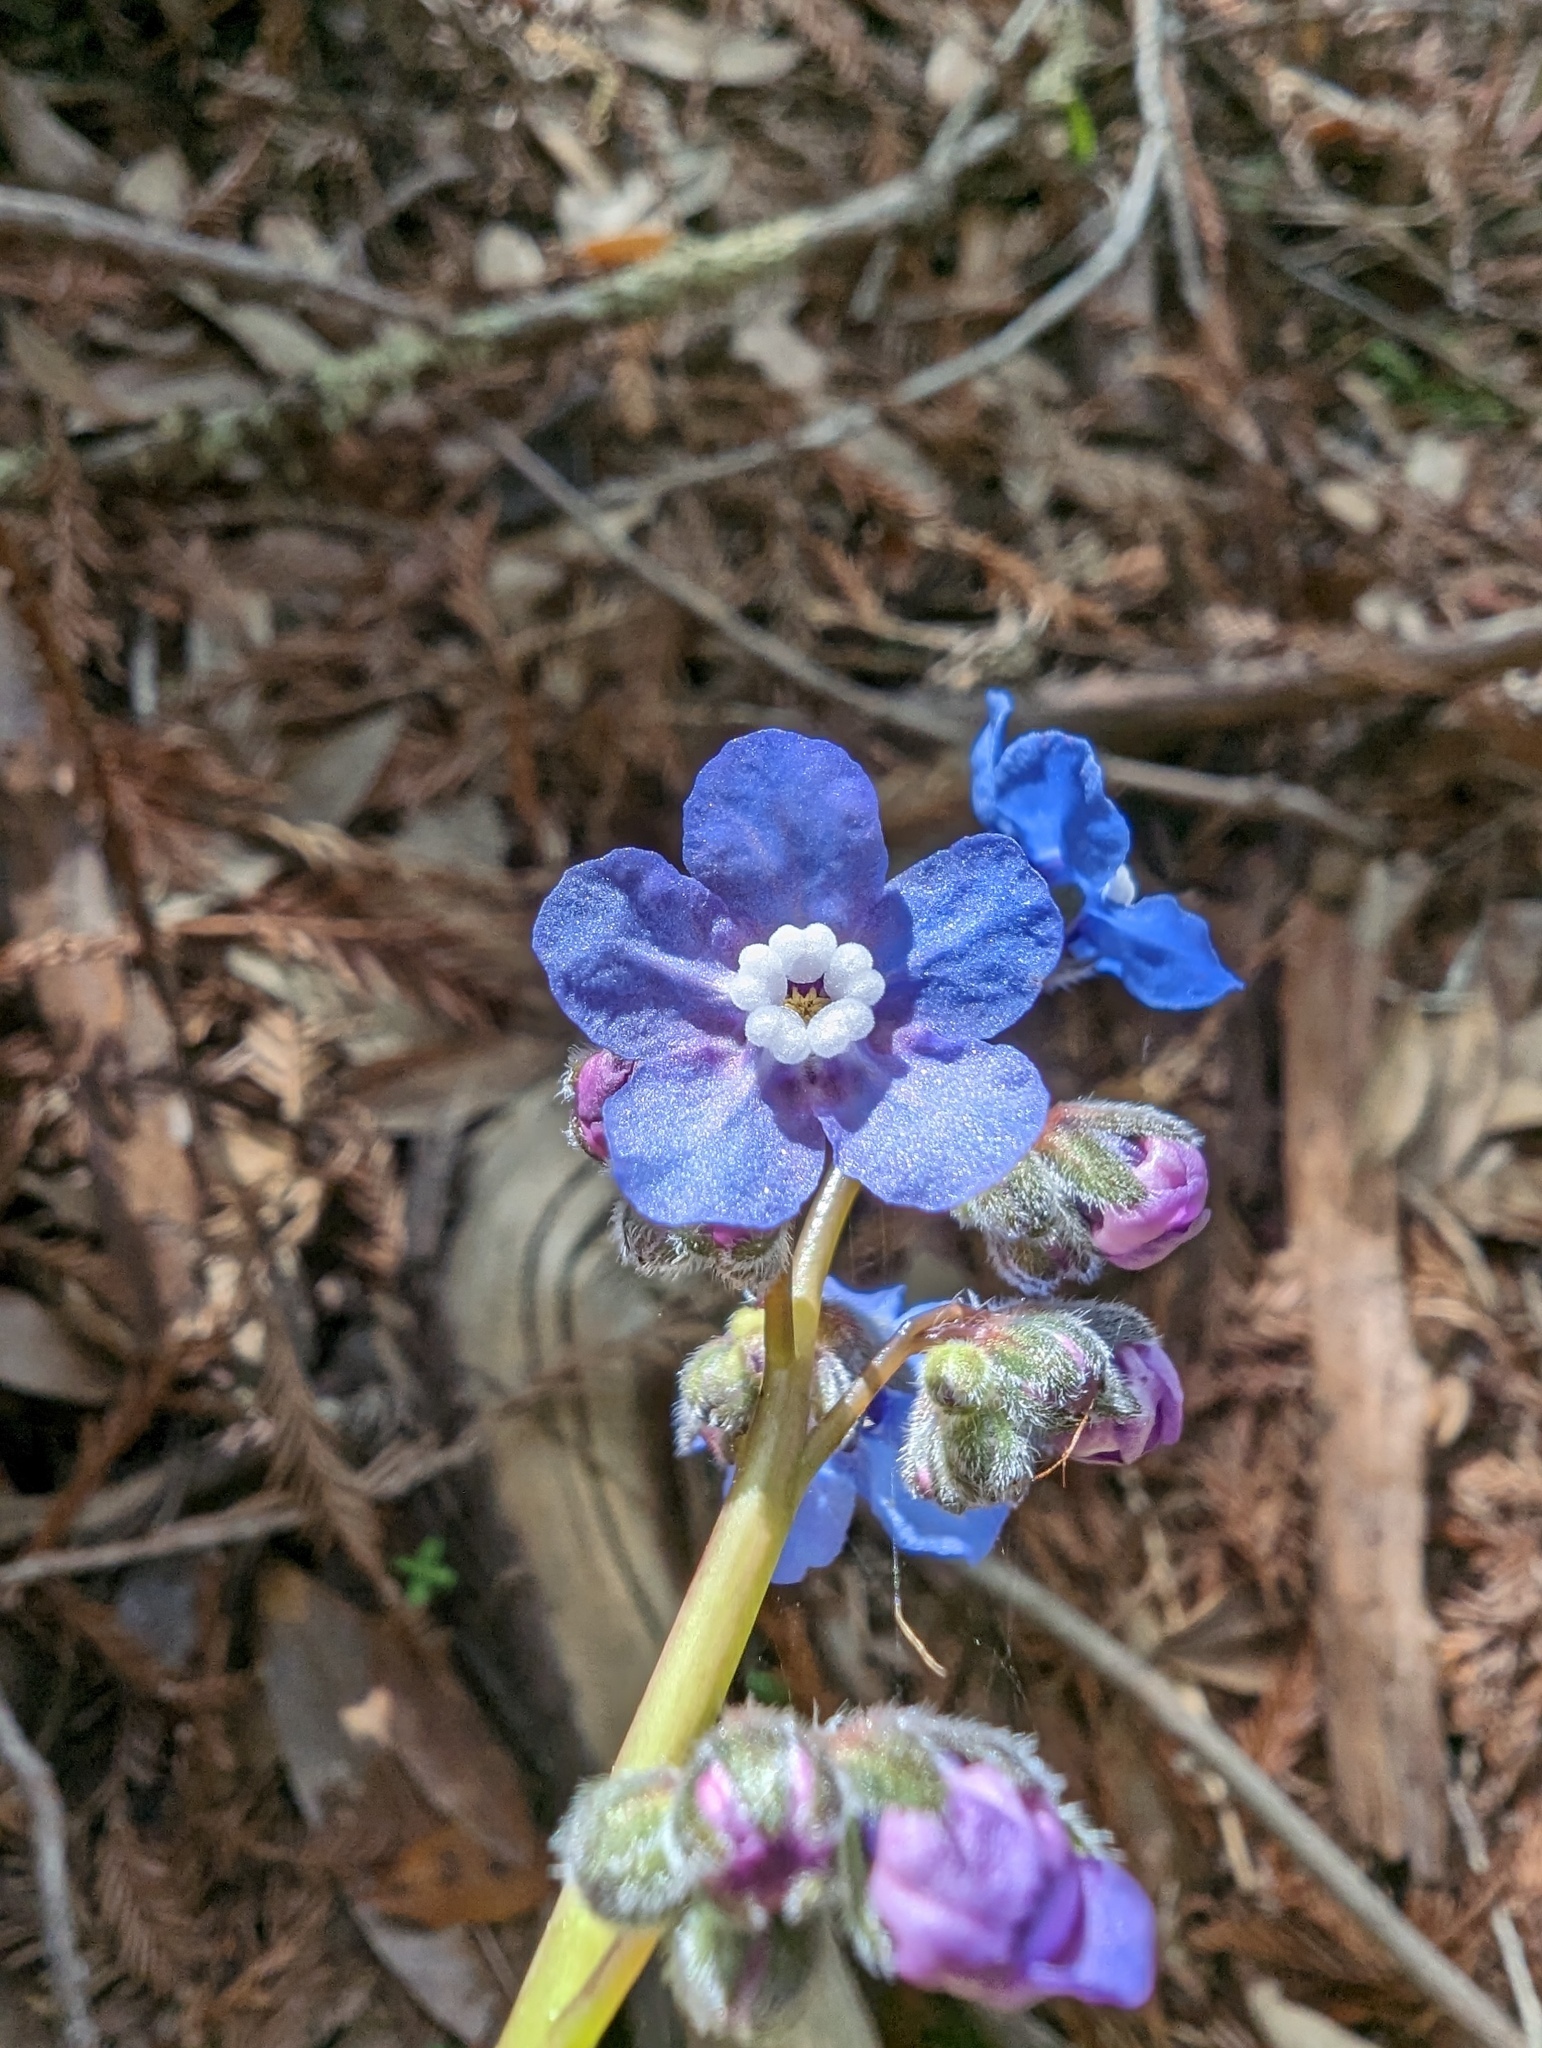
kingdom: Plantae
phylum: Tracheophyta
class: Magnoliopsida
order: Boraginales
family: Boraginaceae
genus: Adelinia
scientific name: Adelinia grande
